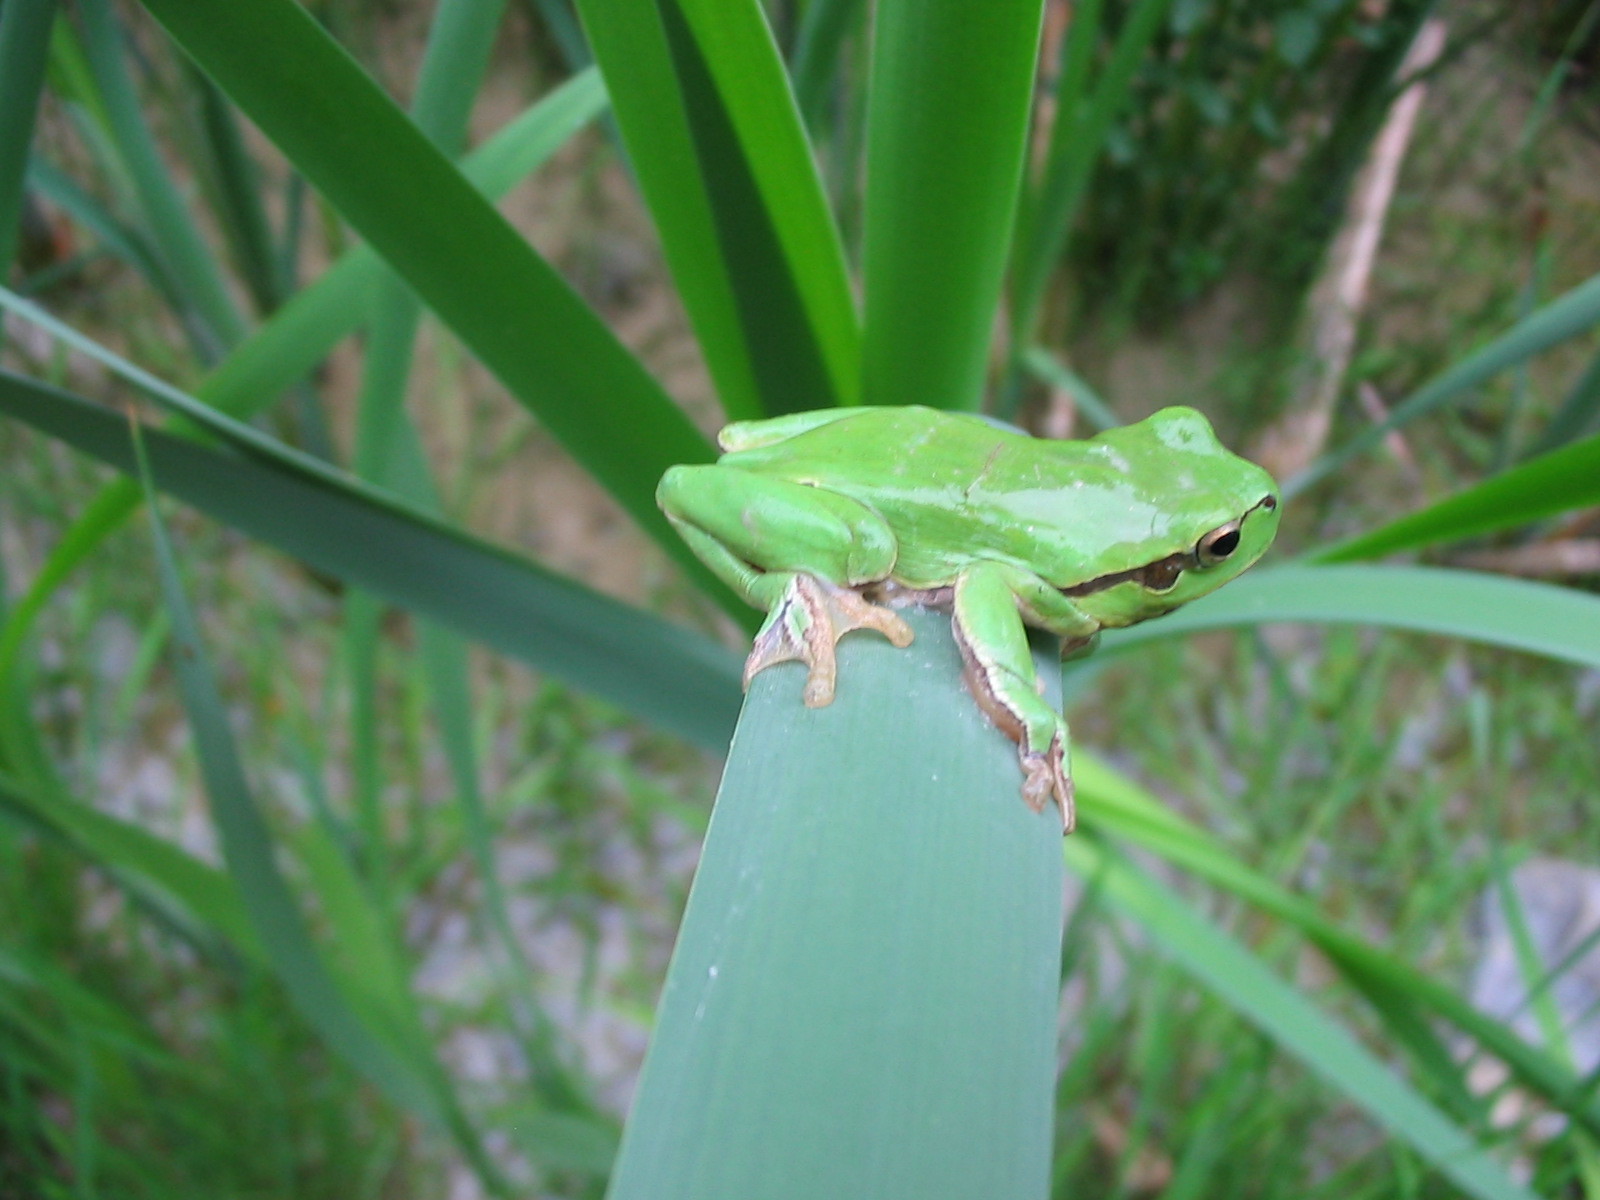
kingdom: Animalia
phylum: Chordata
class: Amphibia
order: Anura
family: Hylidae
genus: Hyla
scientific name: Hyla arborea
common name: Common tree frog
